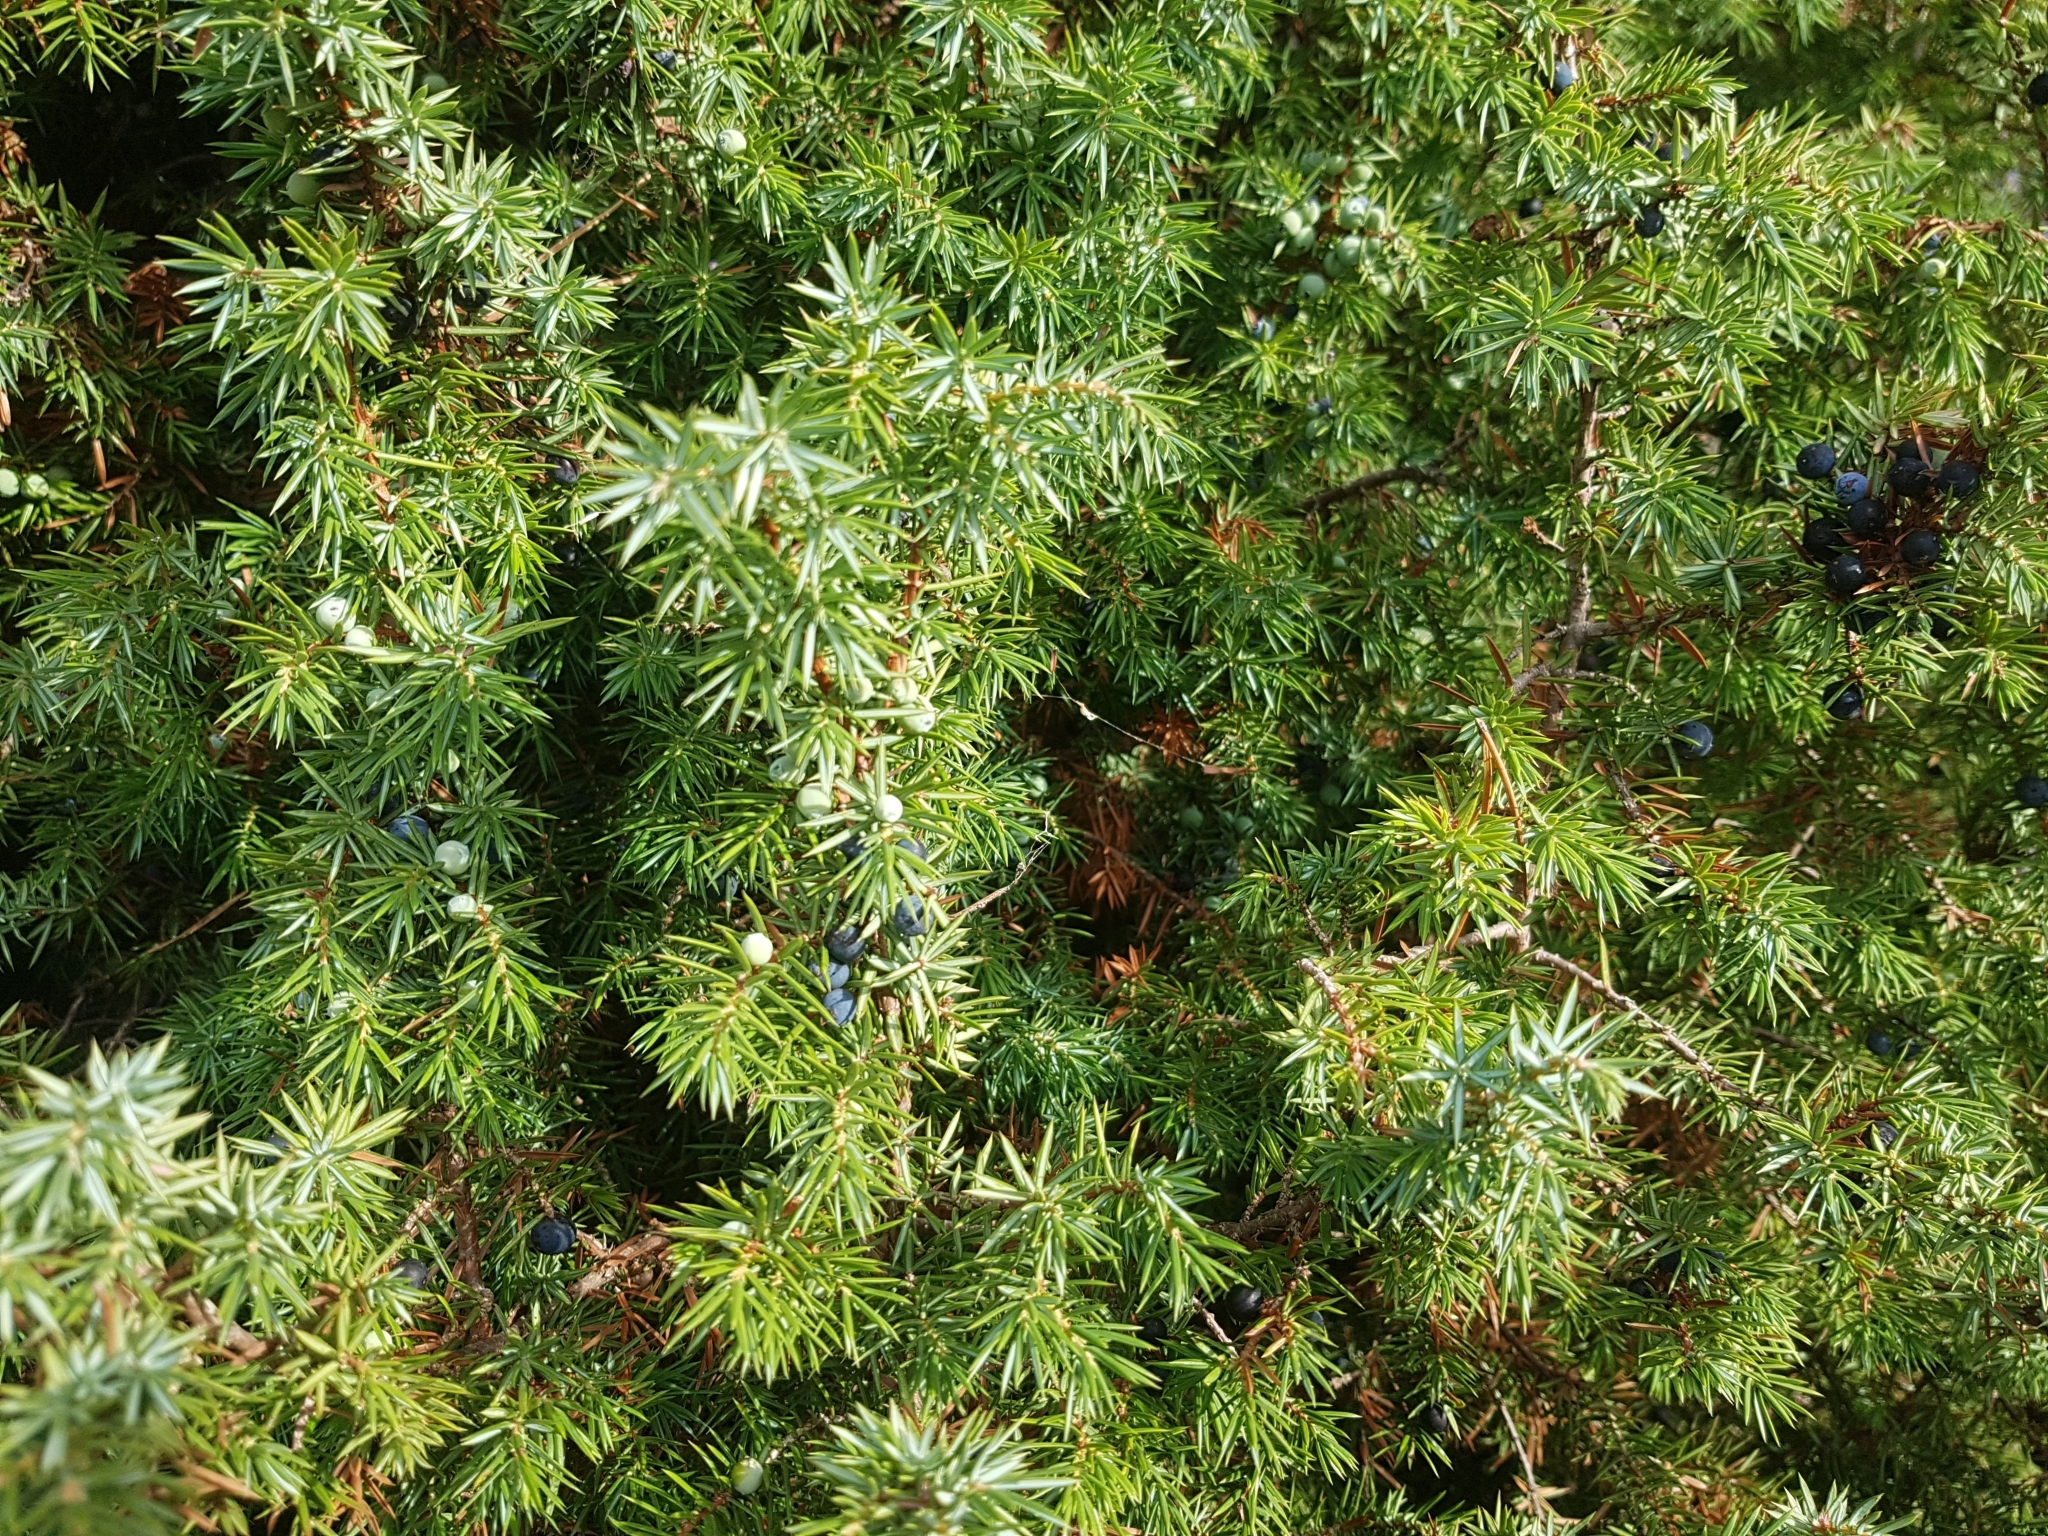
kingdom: Plantae
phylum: Tracheophyta
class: Pinopsida
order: Pinales
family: Cupressaceae
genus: Juniperus
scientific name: Juniperus communis
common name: Common juniper
